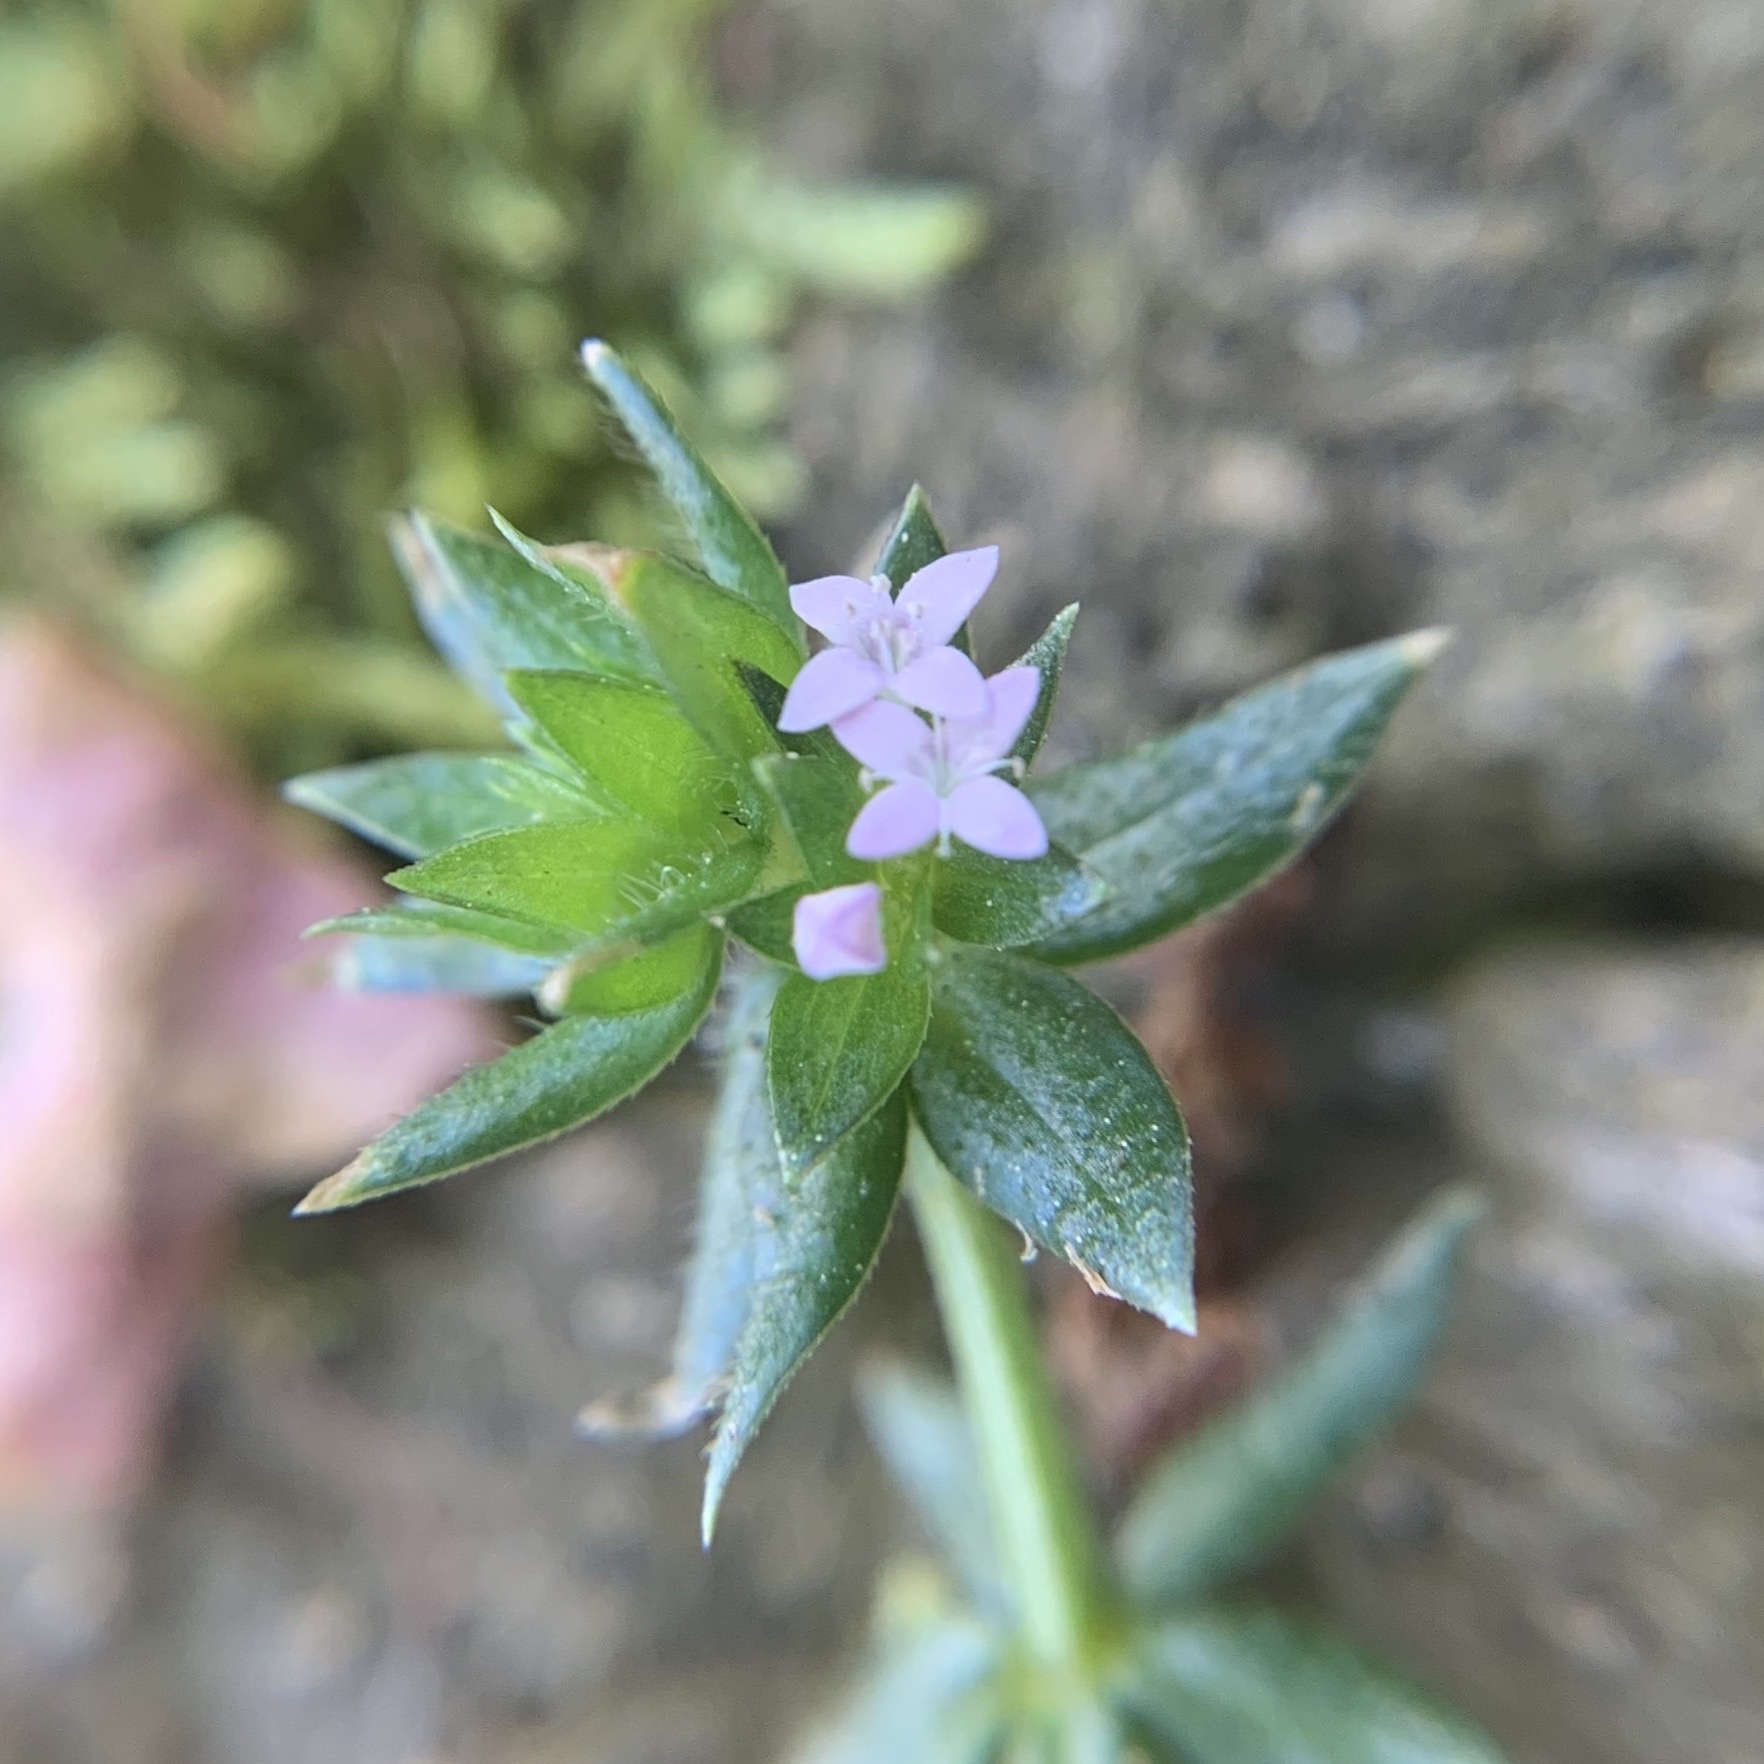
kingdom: Plantae
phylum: Tracheophyta
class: Magnoliopsida
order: Gentianales
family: Rubiaceae
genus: Sherardia
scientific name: Sherardia arvensis
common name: Field madder
